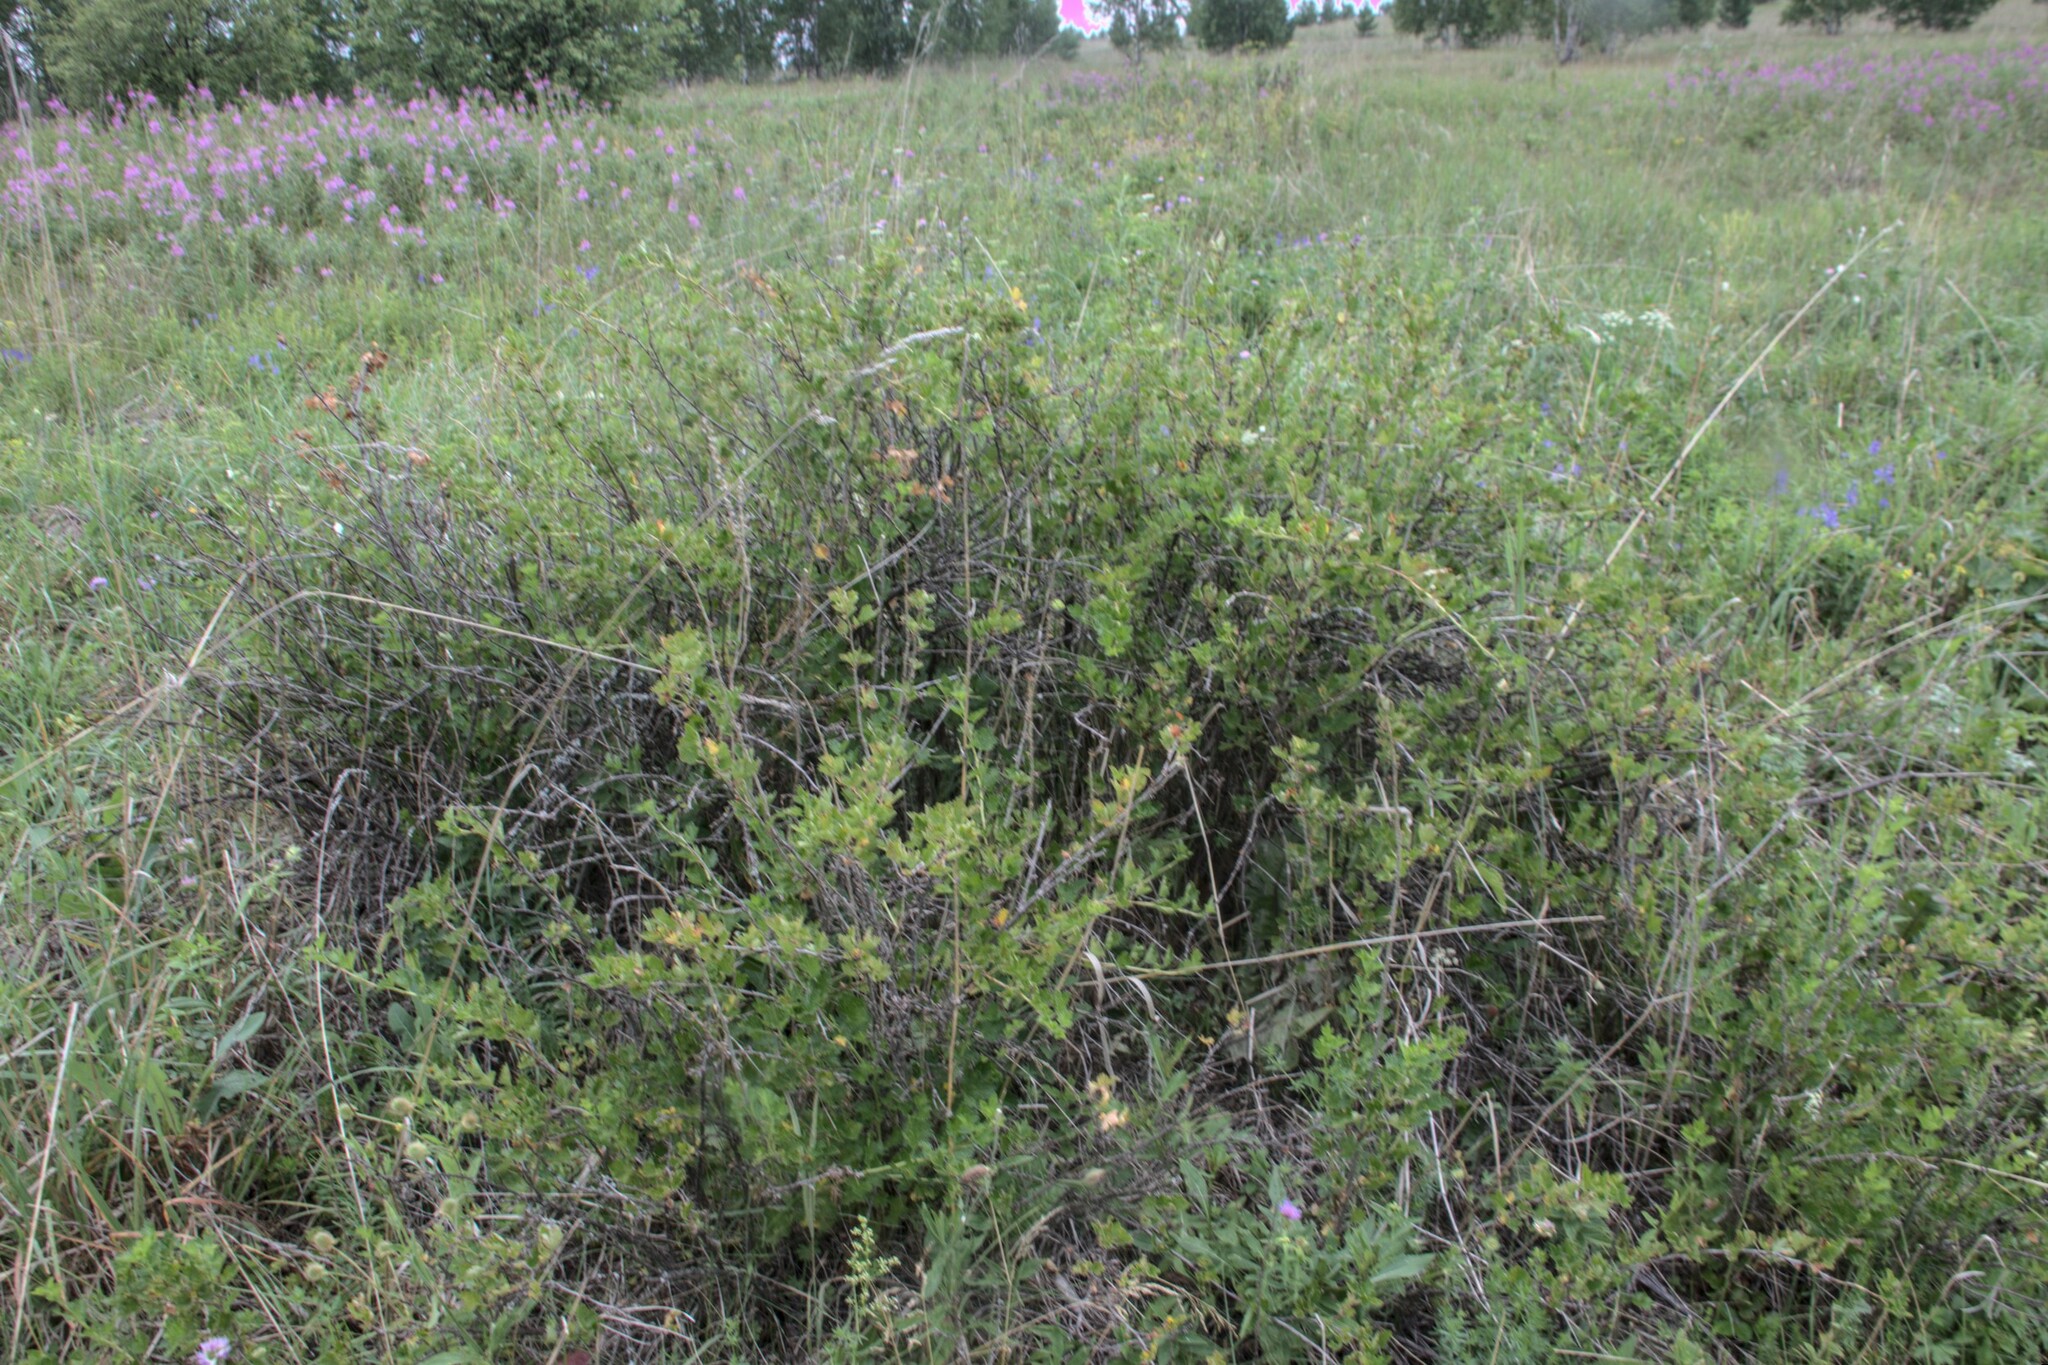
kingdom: Plantae
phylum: Tracheophyta
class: Magnoliopsida
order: Saxifragales
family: Grossulariaceae
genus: Ribes
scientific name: Ribes uva-crispa
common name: Gooseberry
